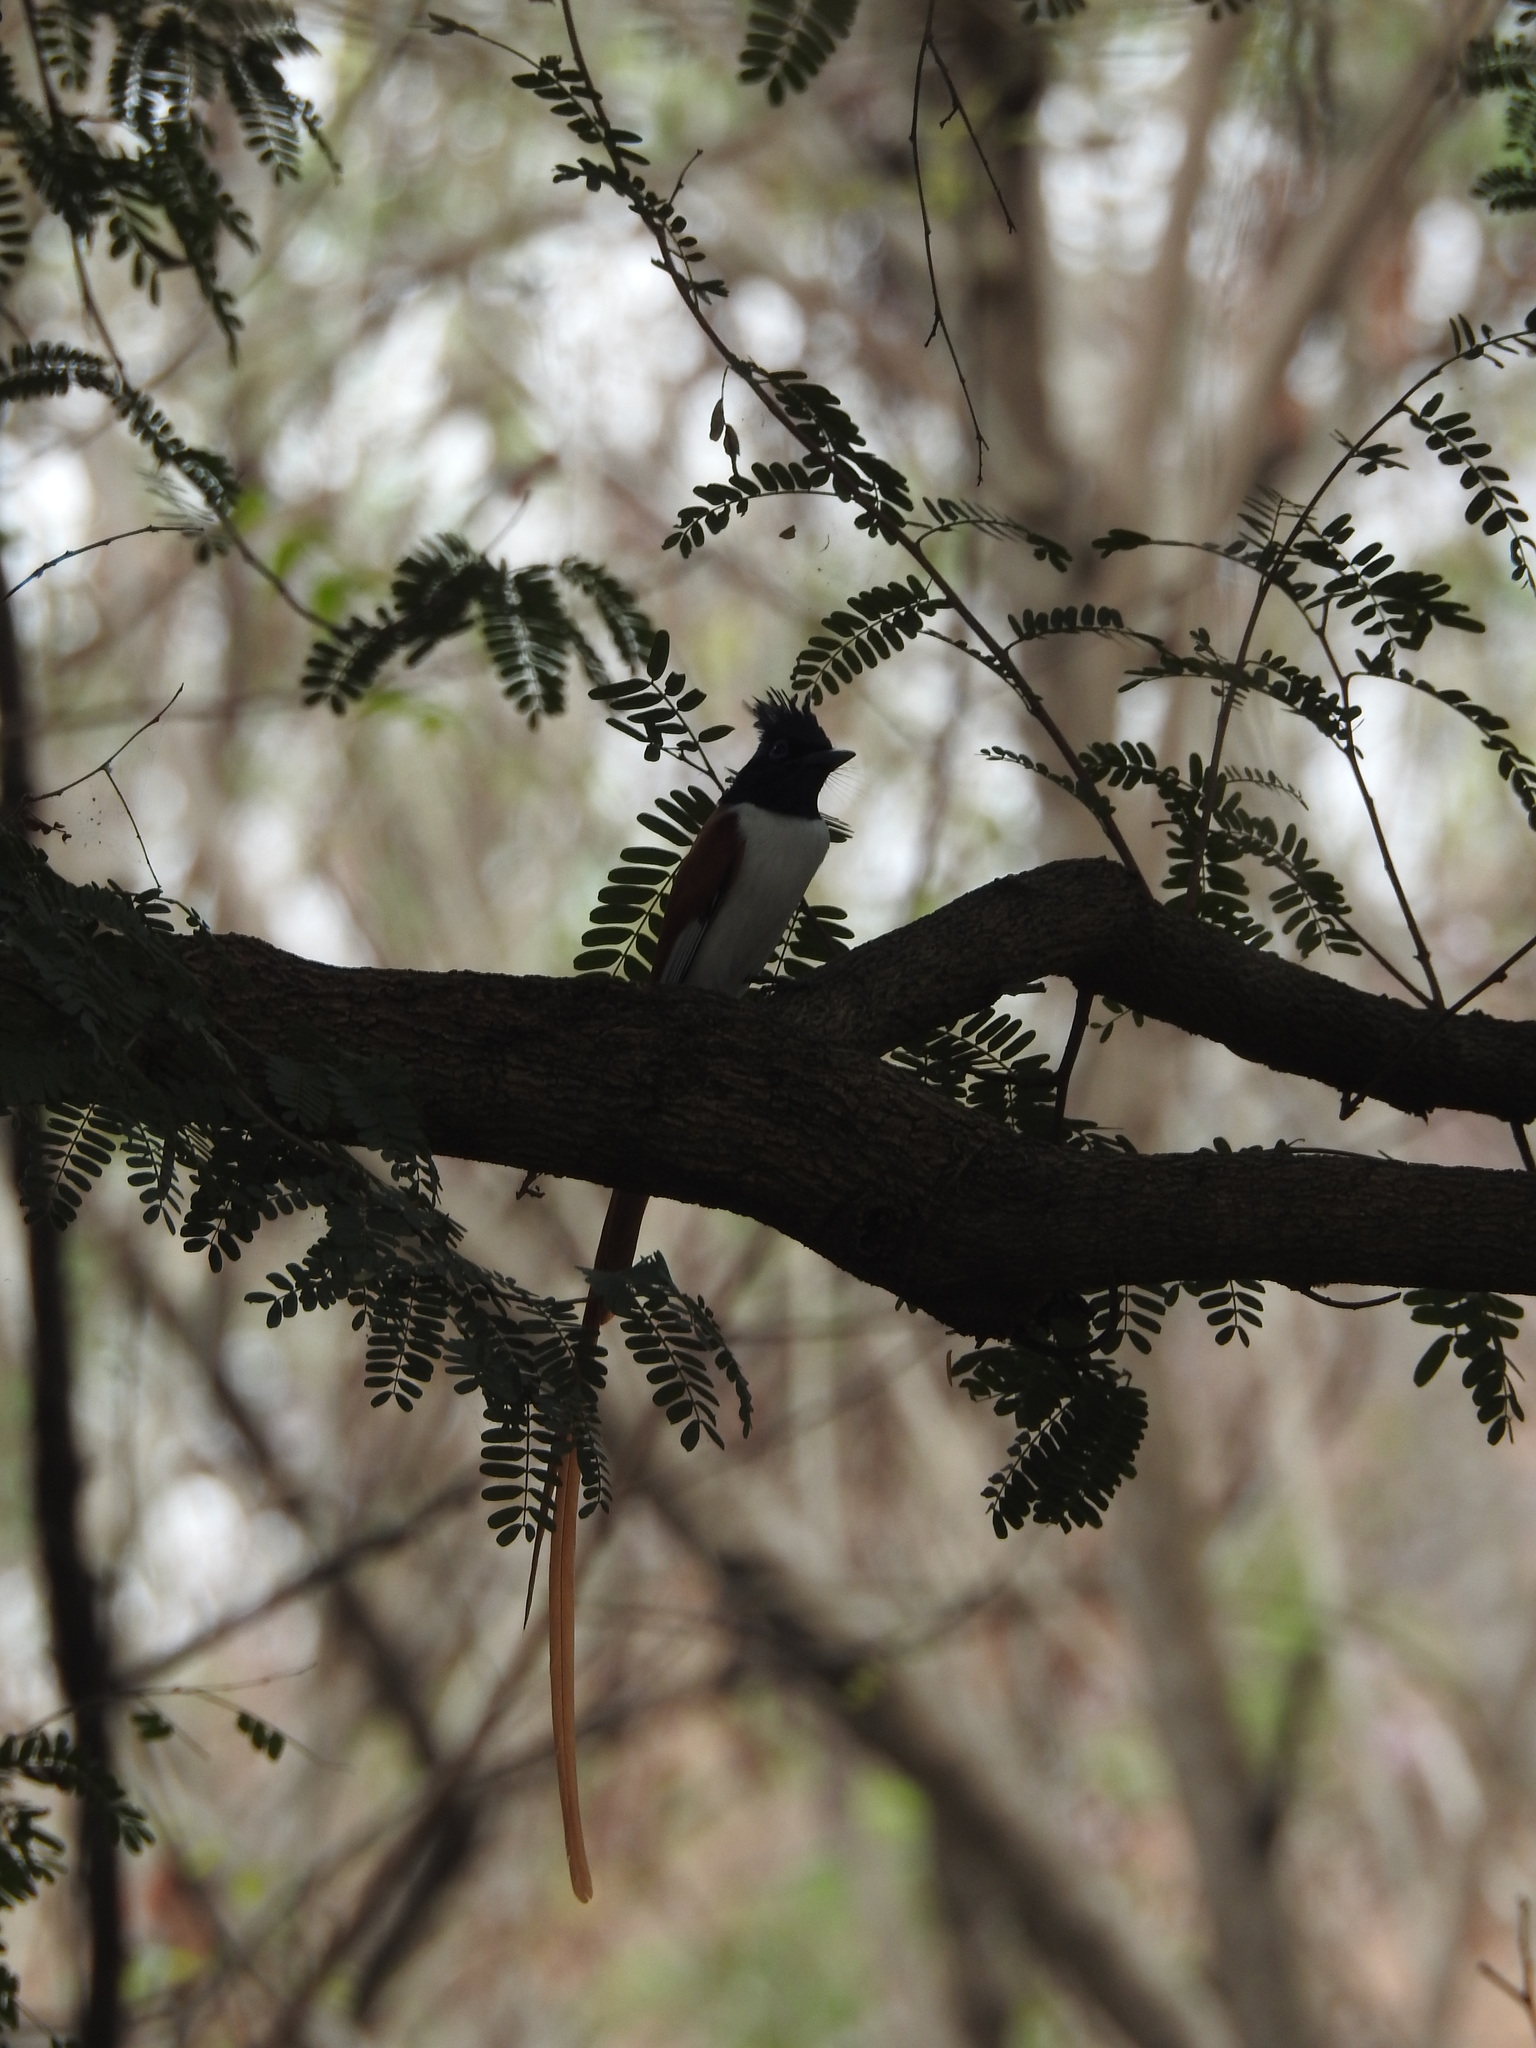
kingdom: Animalia
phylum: Chordata
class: Aves
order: Passeriformes
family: Monarchidae
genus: Terpsiphone
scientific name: Terpsiphone paradisi
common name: Indian paradise flycatcher
